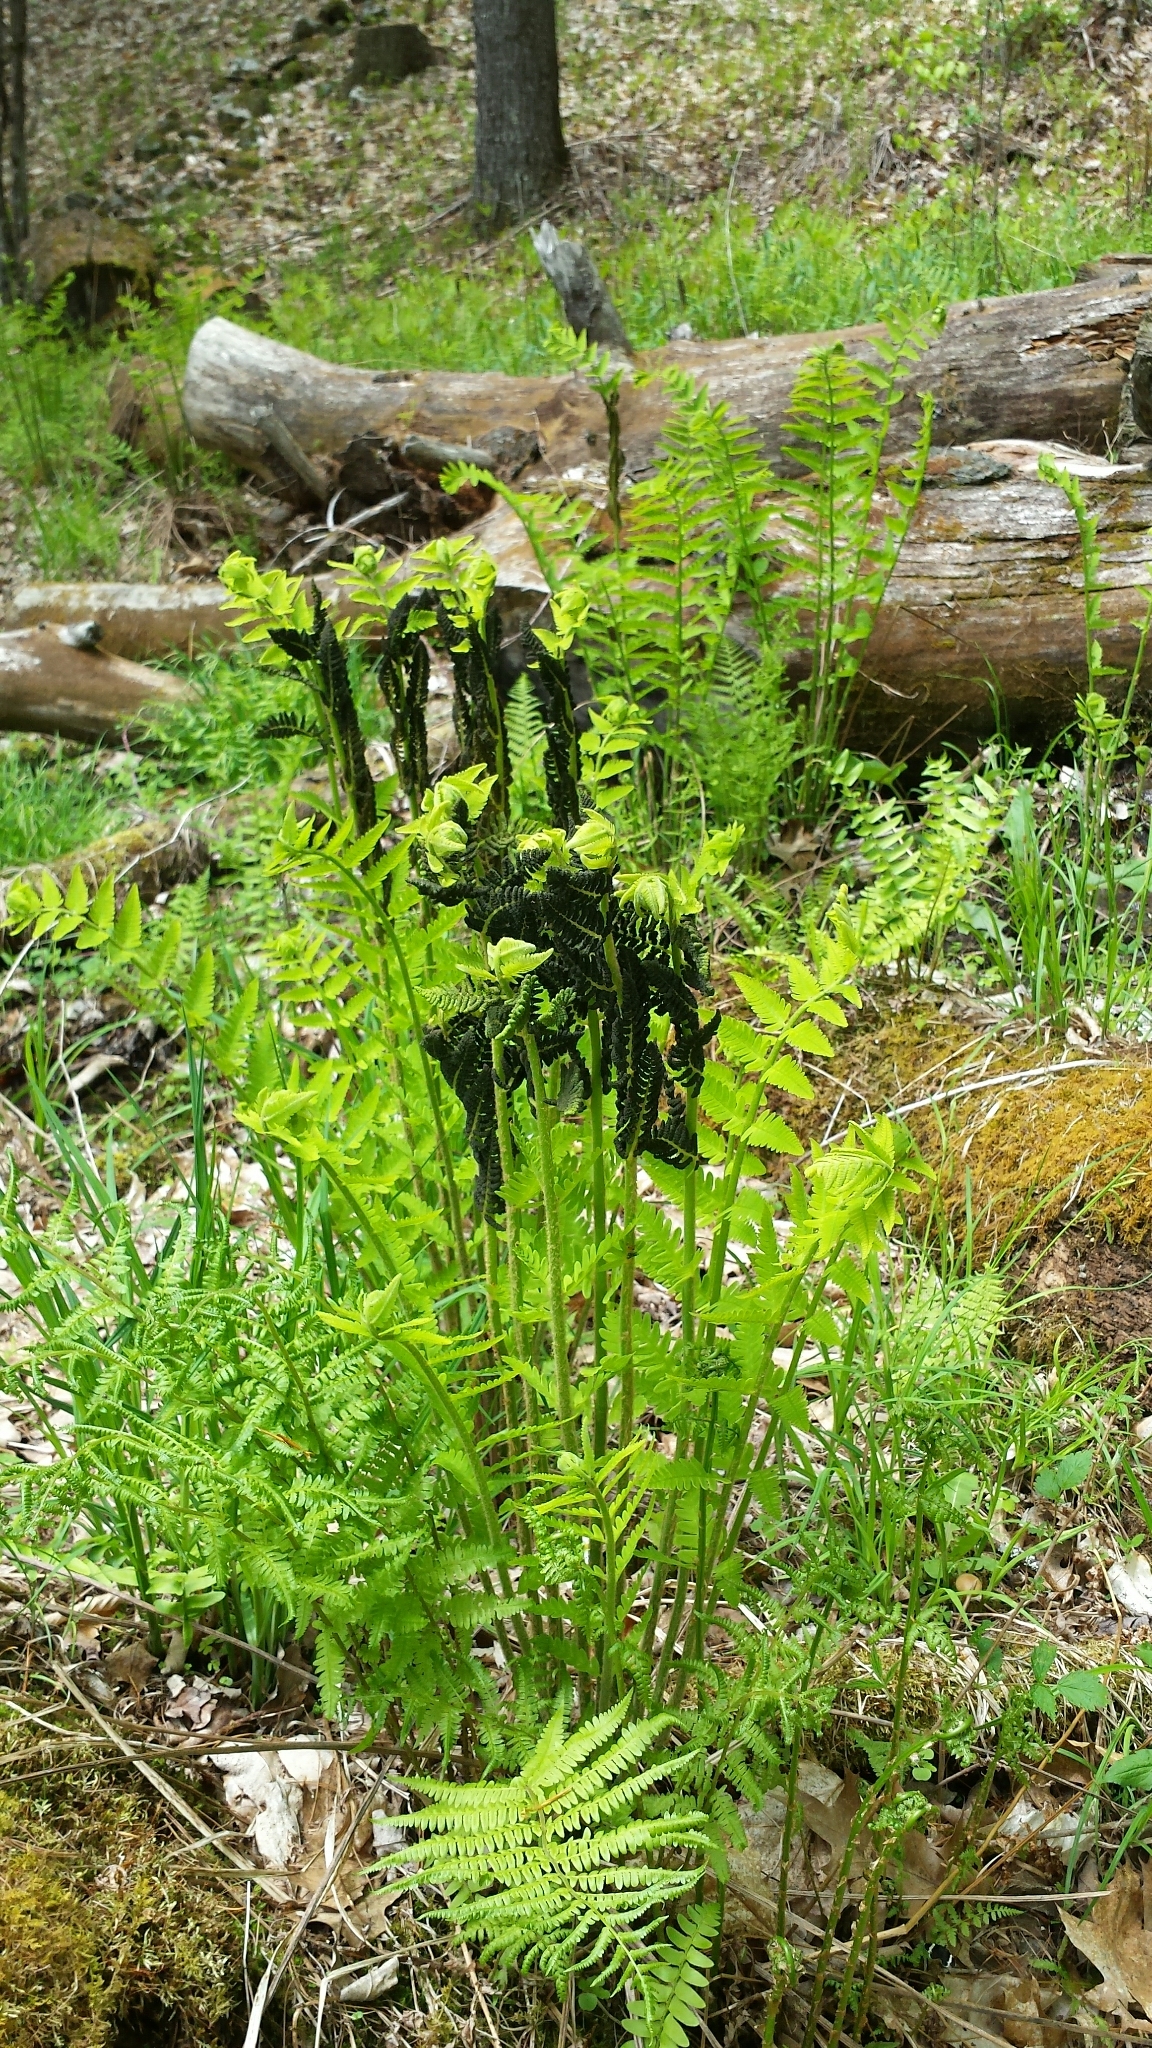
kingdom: Plantae
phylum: Tracheophyta
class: Polypodiopsida
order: Osmundales
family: Osmundaceae
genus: Claytosmunda
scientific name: Claytosmunda claytoniana
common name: Clayton's fern
